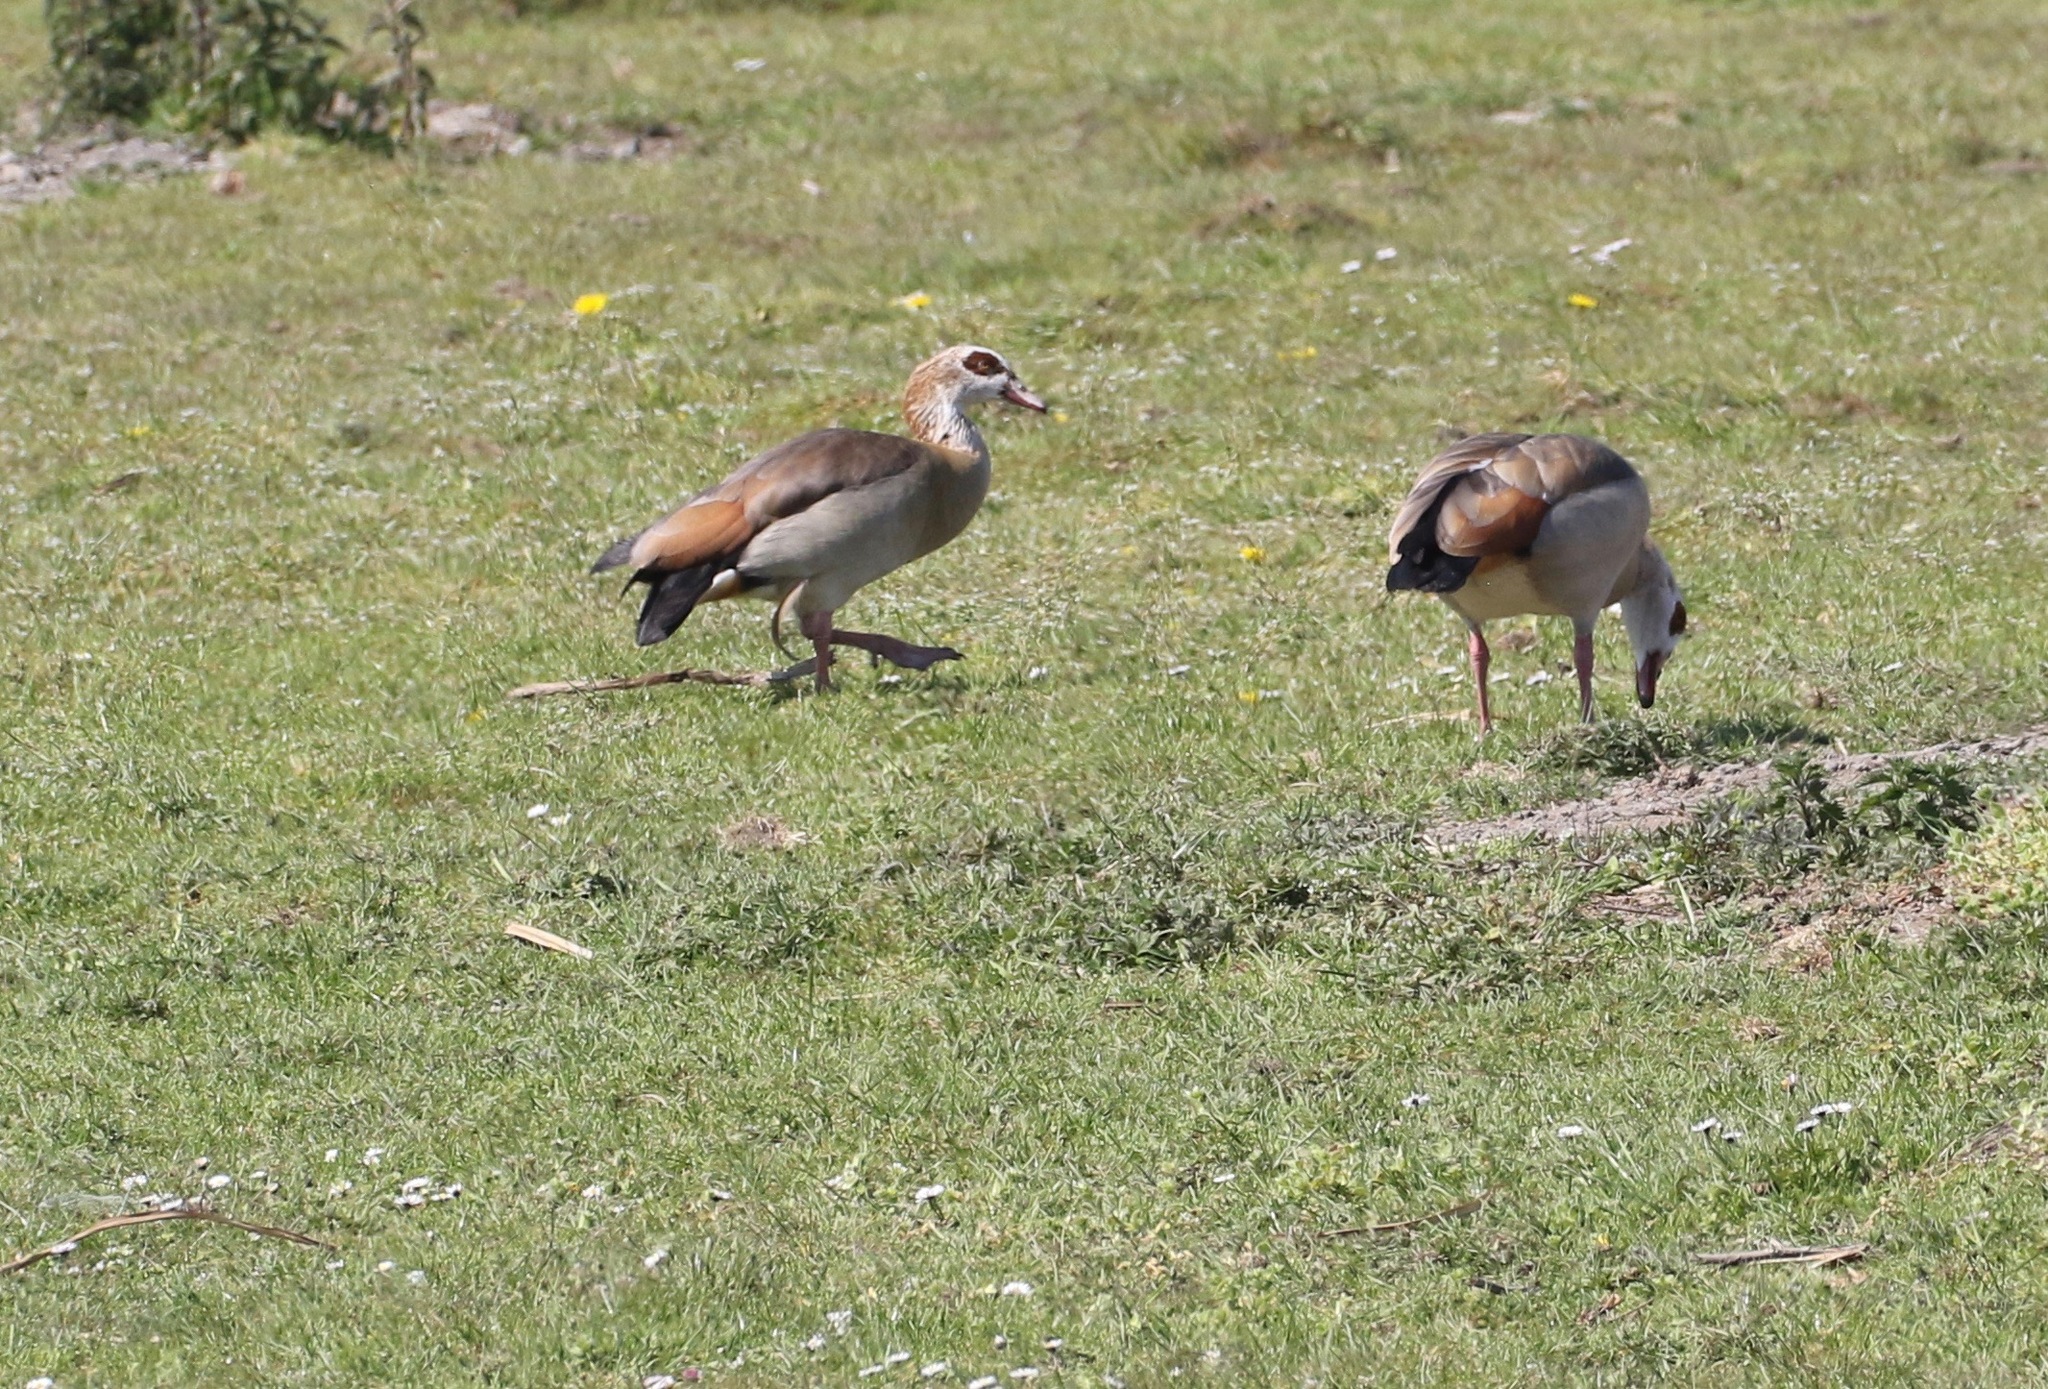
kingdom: Animalia
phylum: Chordata
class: Aves
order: Anseriformes
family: Anatidae
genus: Alopochen
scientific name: Alopochen aegyptiaca
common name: Egyptian goose
